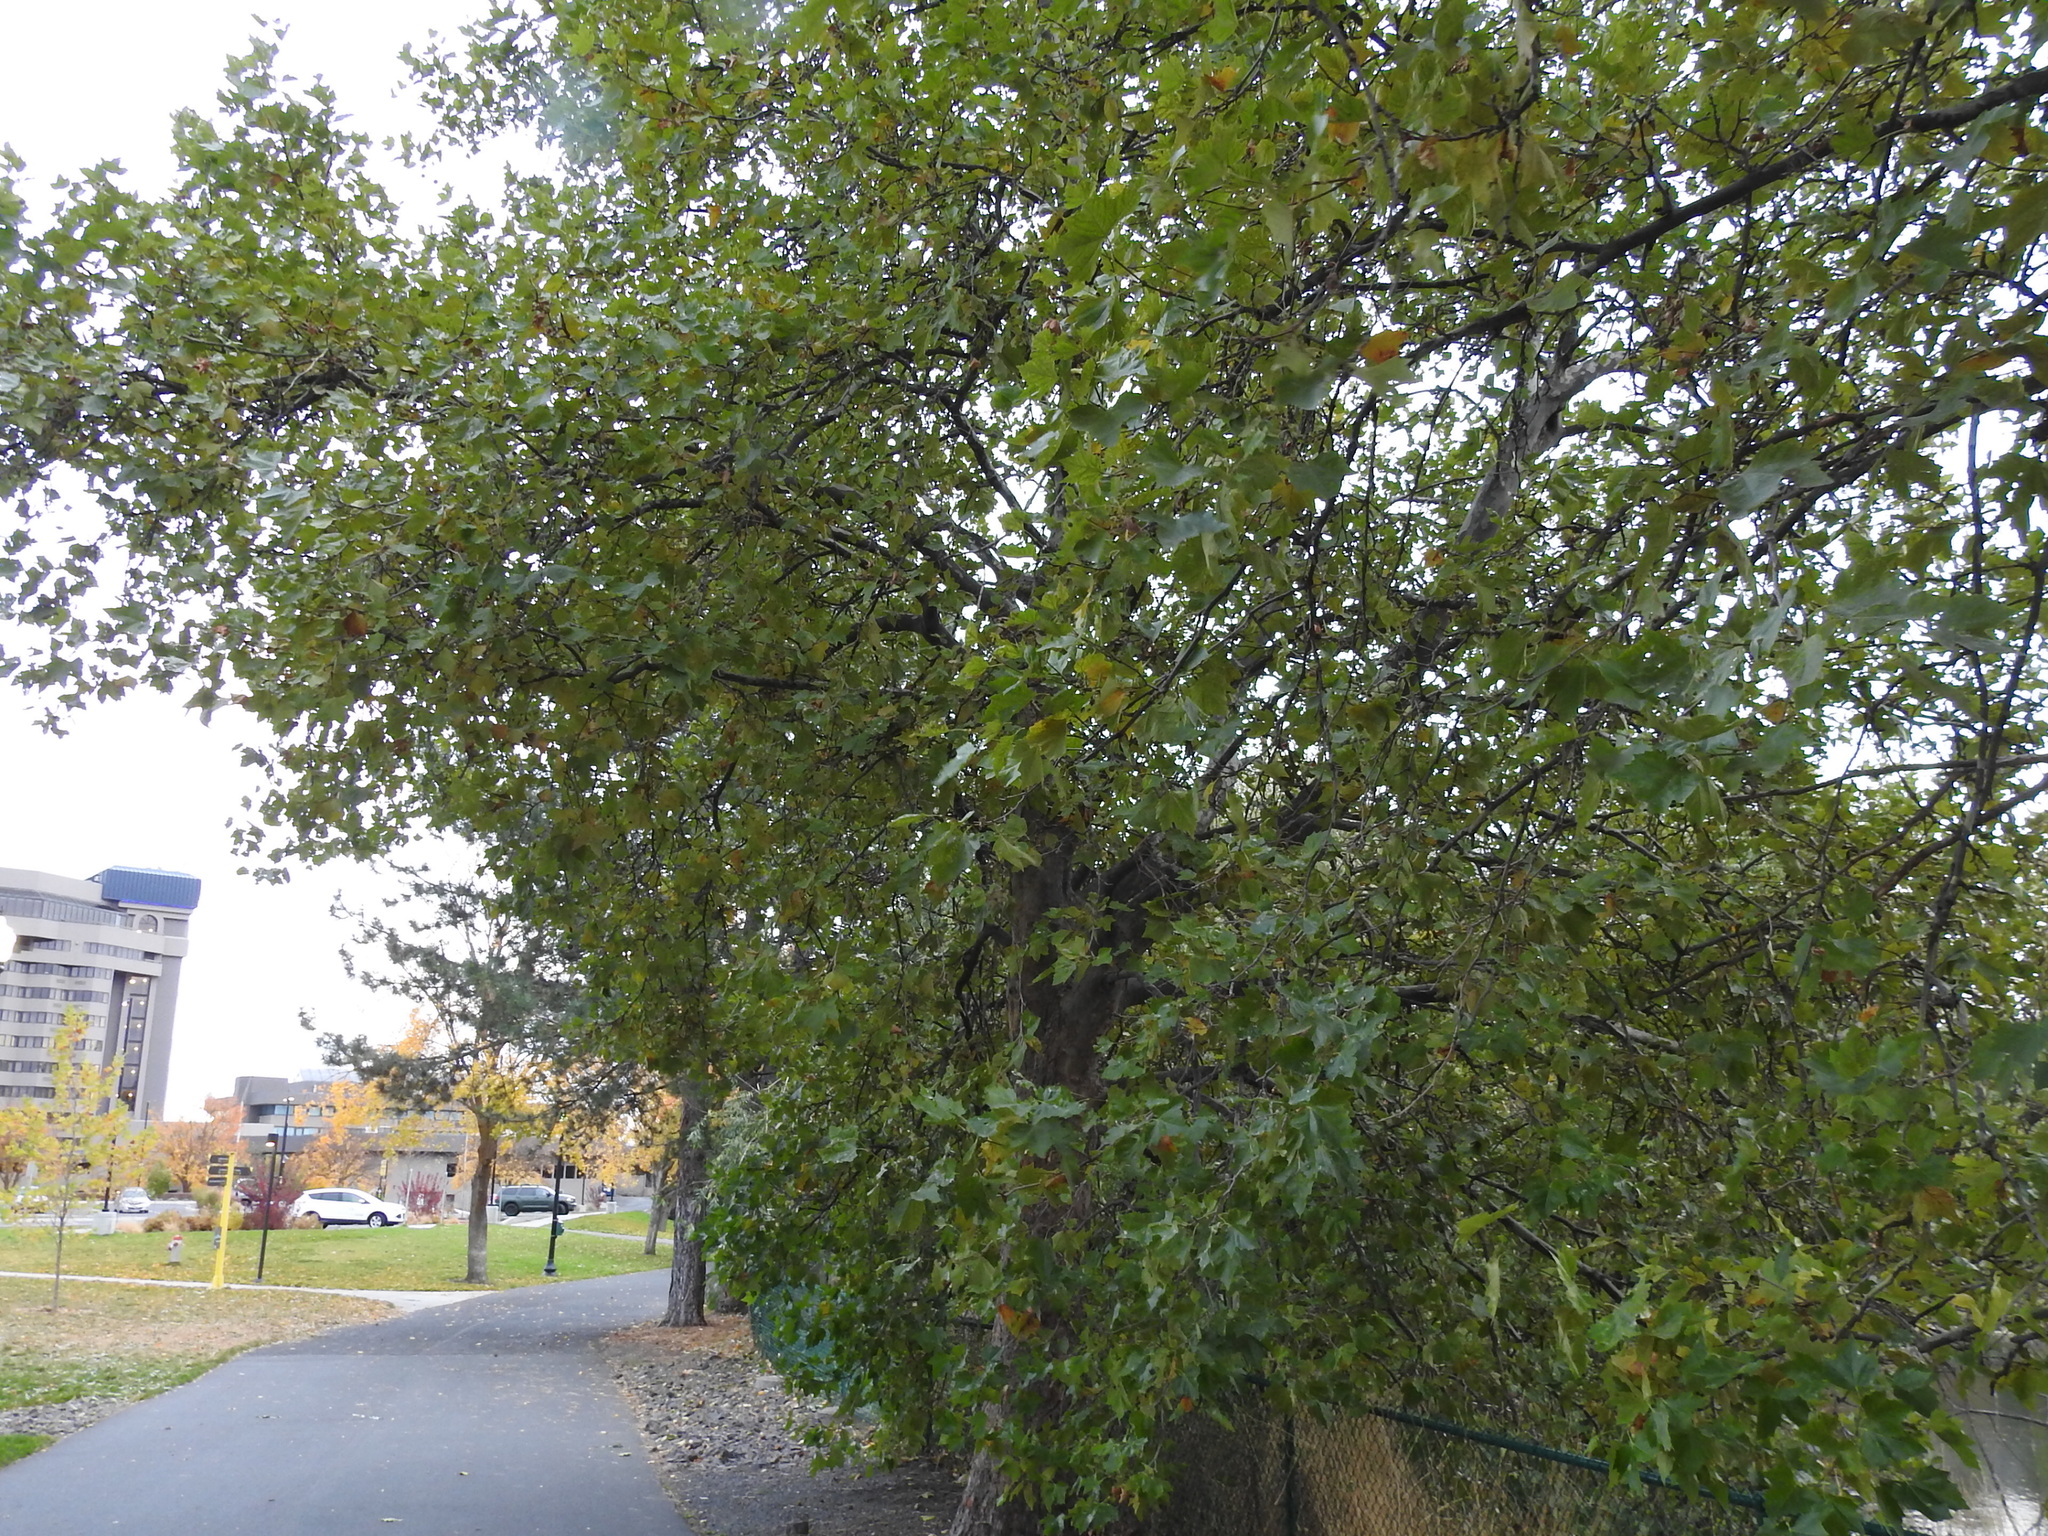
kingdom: Plantae
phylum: Tracheophyta
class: Magnoliopsida
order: Proteales
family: Platanaceae
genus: Platanus
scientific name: Platanus occidentalis
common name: American sycamore
